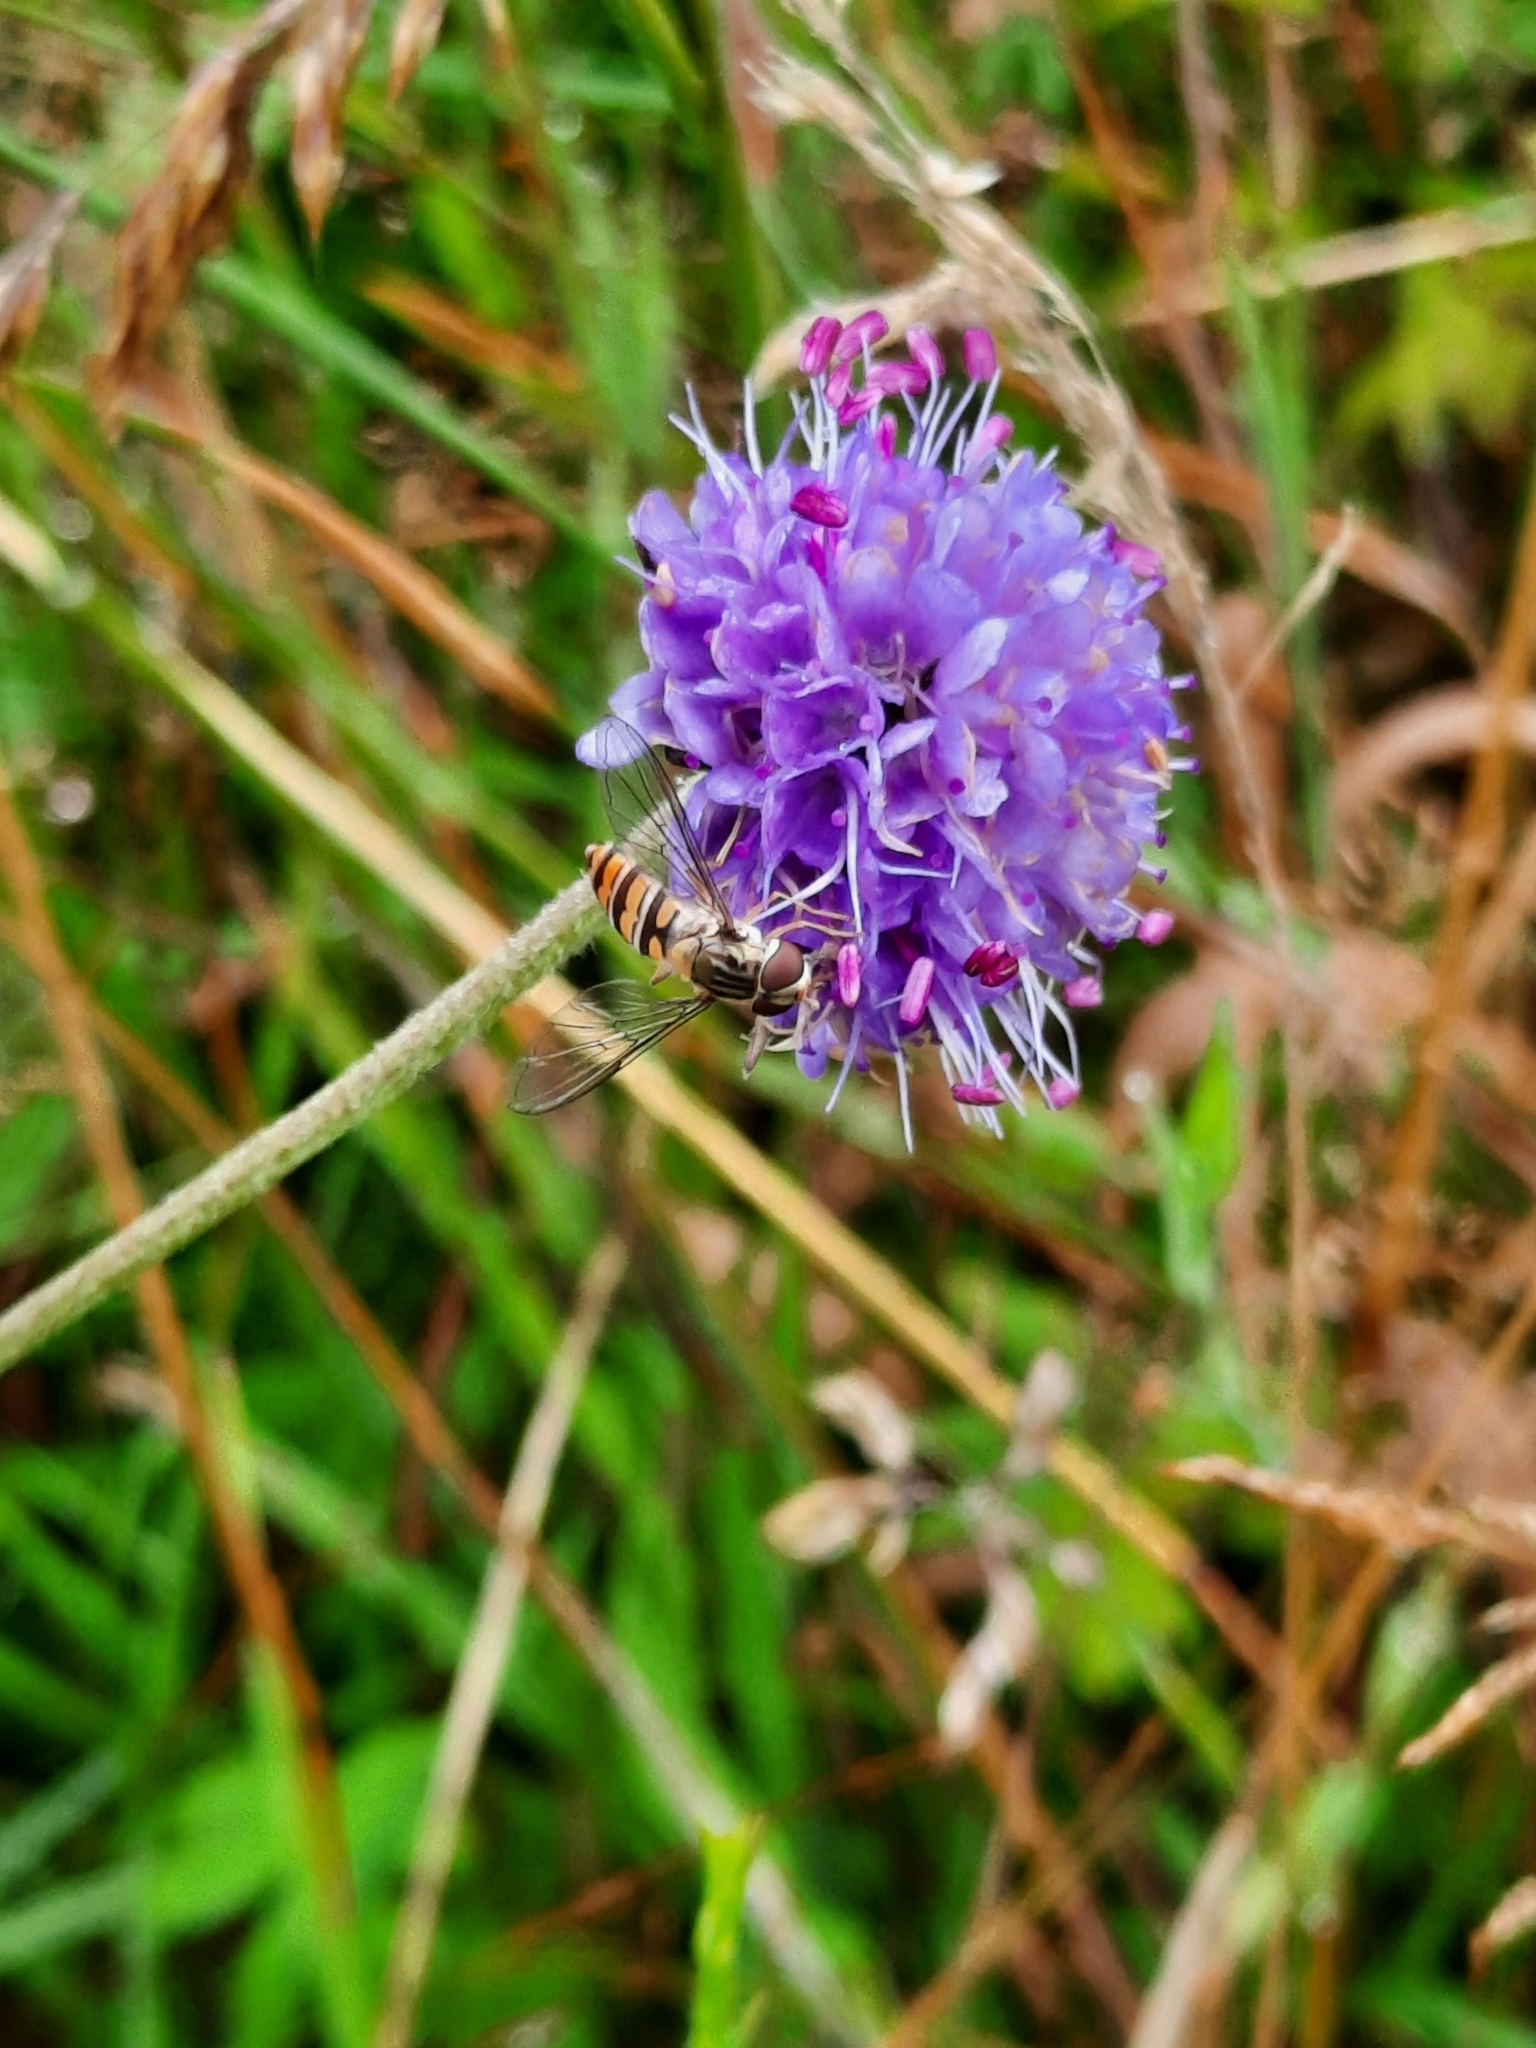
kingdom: Animalia
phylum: Arthropoda
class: Insecta
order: Diptera
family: Syrphidae
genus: Episyrphus
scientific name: Episyrphus balteatus
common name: Marmalade hoverfly
